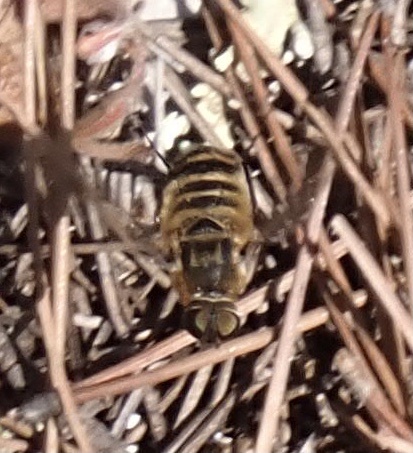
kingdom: Animalia
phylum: Arthropoda
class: Insecta
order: Diptera
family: Bombyliidae
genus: Villa
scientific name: Villa hottentotta
